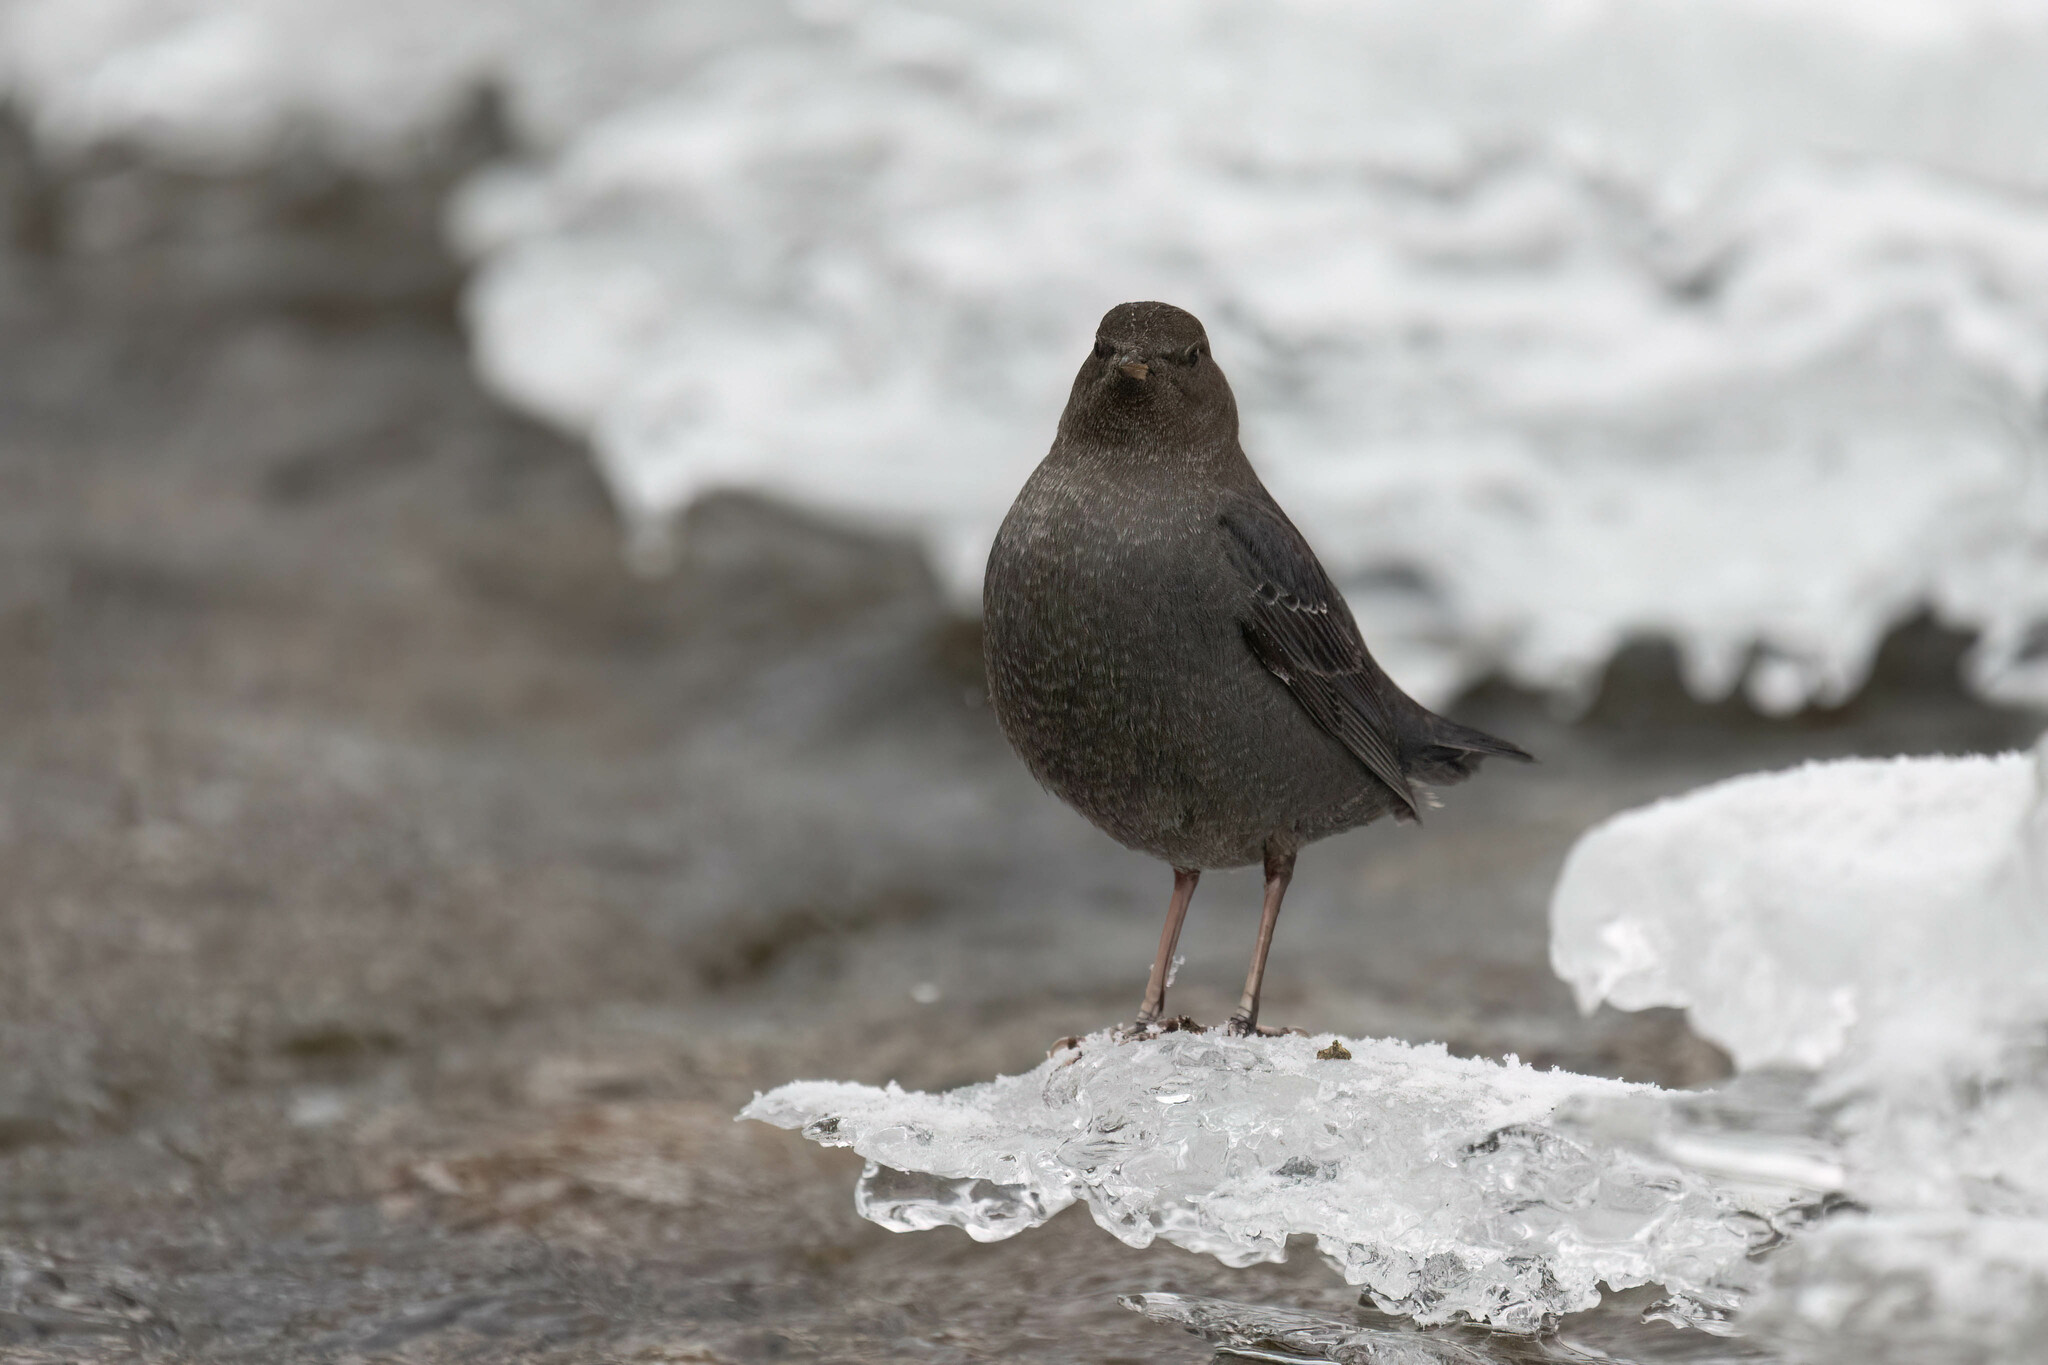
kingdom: Animalia
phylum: Chordata
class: Aves
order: Passeriformes
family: Cinclidae
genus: Cinclus
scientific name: Cinclus mexicanus
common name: American dipper
